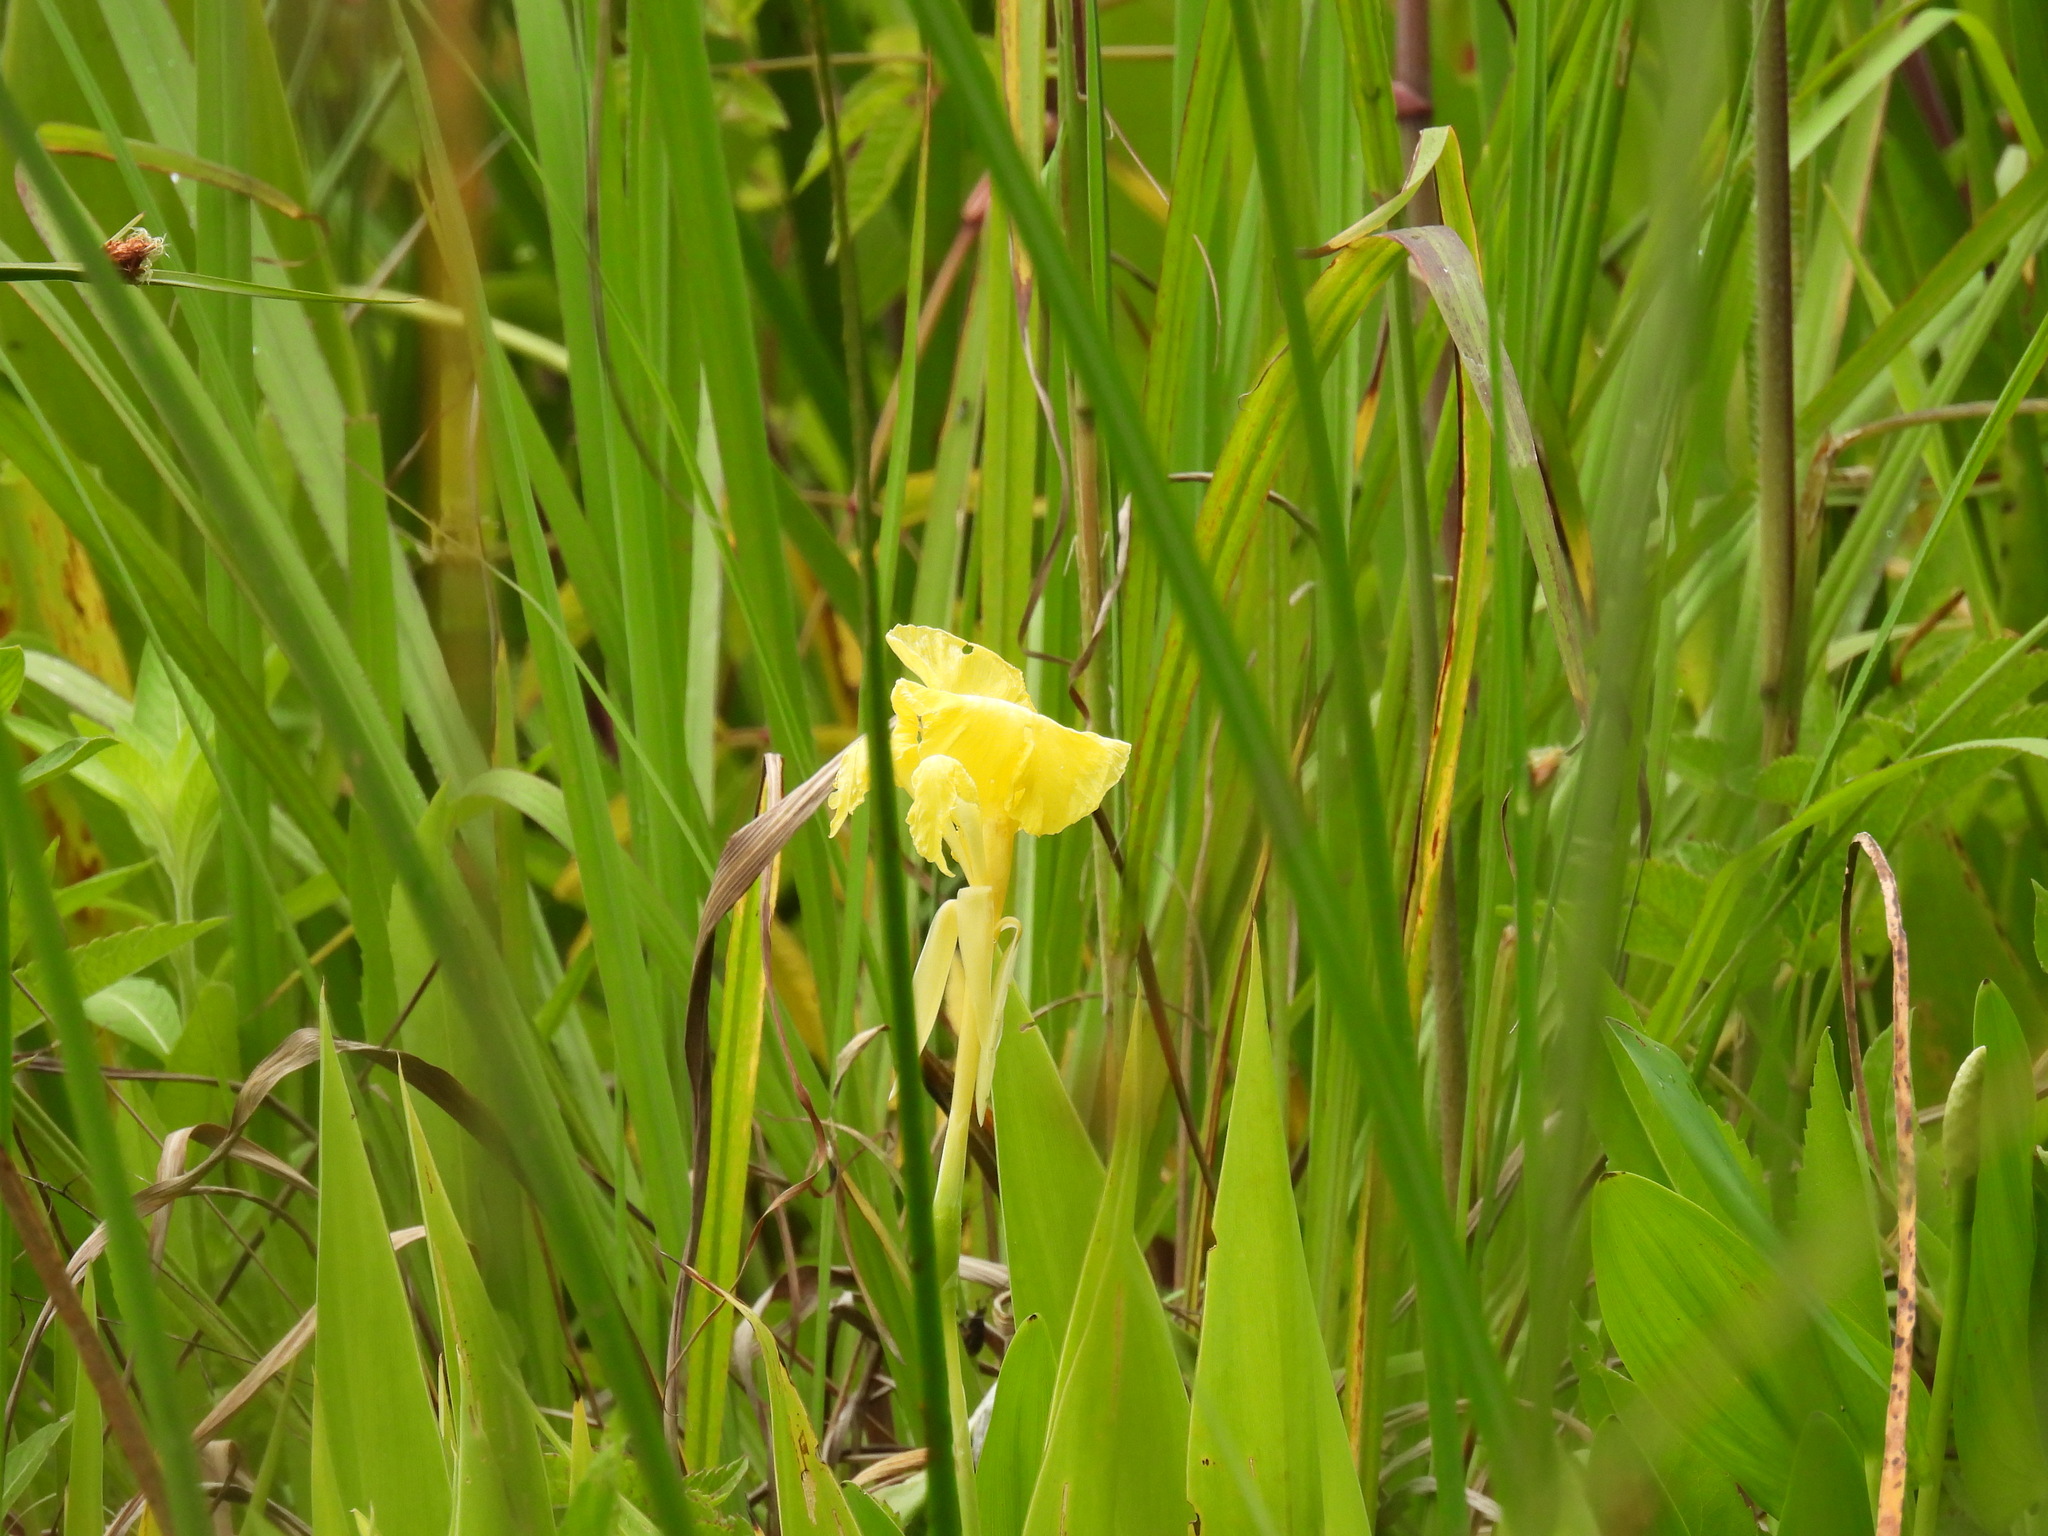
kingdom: Plantae
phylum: Tracheophyta
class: Liliopsida
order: Zingiberales
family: Cannaceae
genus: Canna
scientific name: Canna flaccida
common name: Bandana-of-the-everglades
